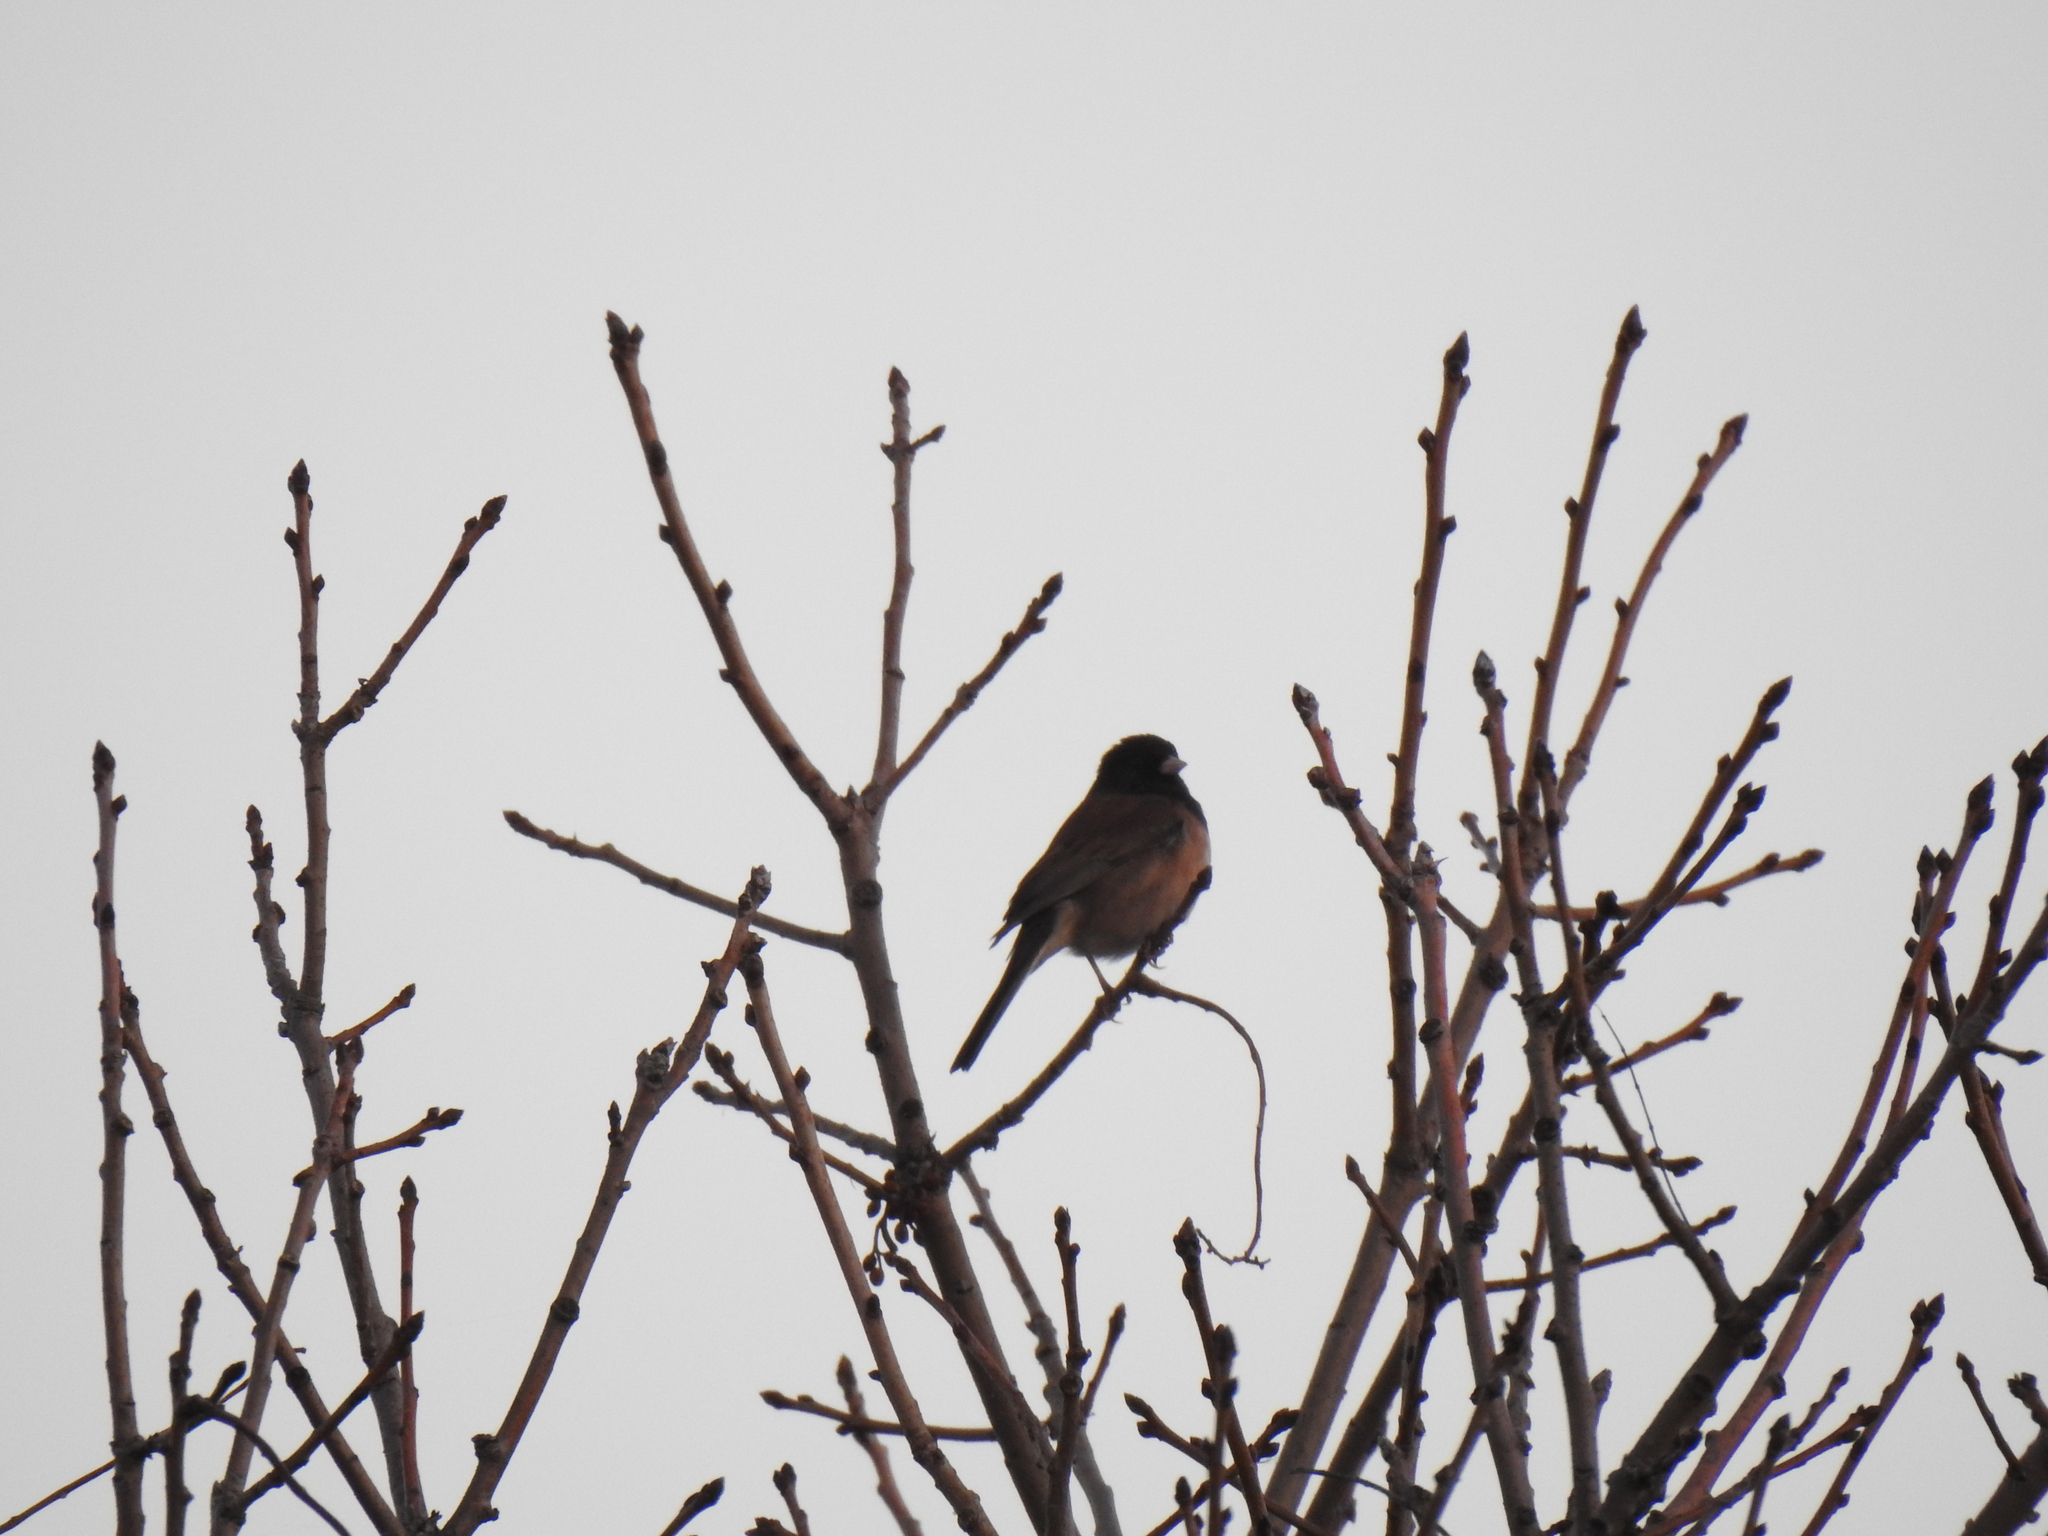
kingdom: Animalia
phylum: Chordata
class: Aves
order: Passeriformes
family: Passerellidae
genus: Junco
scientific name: Junco hyemalis
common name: Dark-eyed junco
